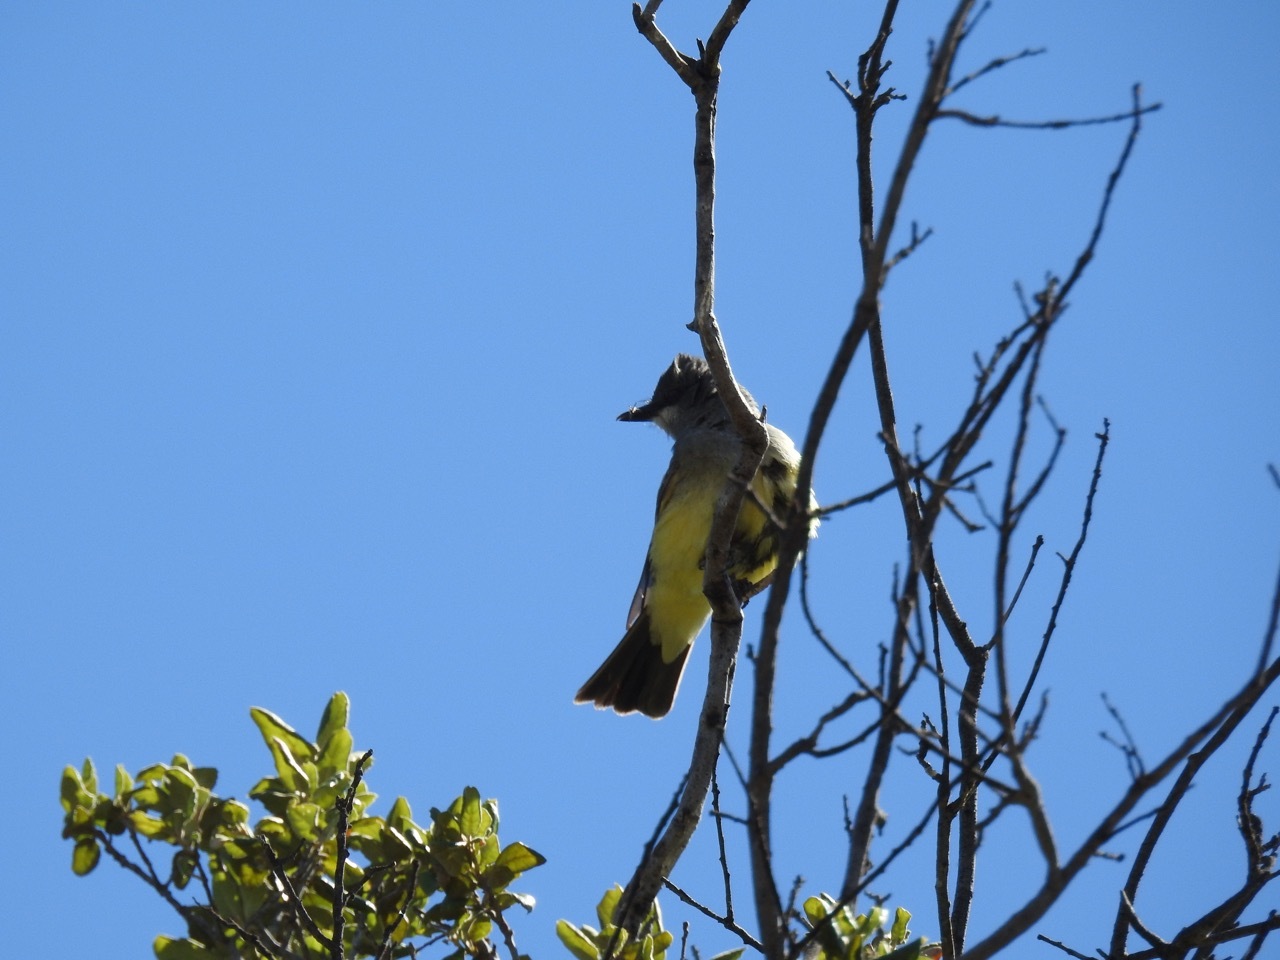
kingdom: Animalia
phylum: Chordata
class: Aves
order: Passeriformes
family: Tyrannidae
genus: Tyrannus
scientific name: Tyrannus vociferans
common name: Cassin's kingbird
